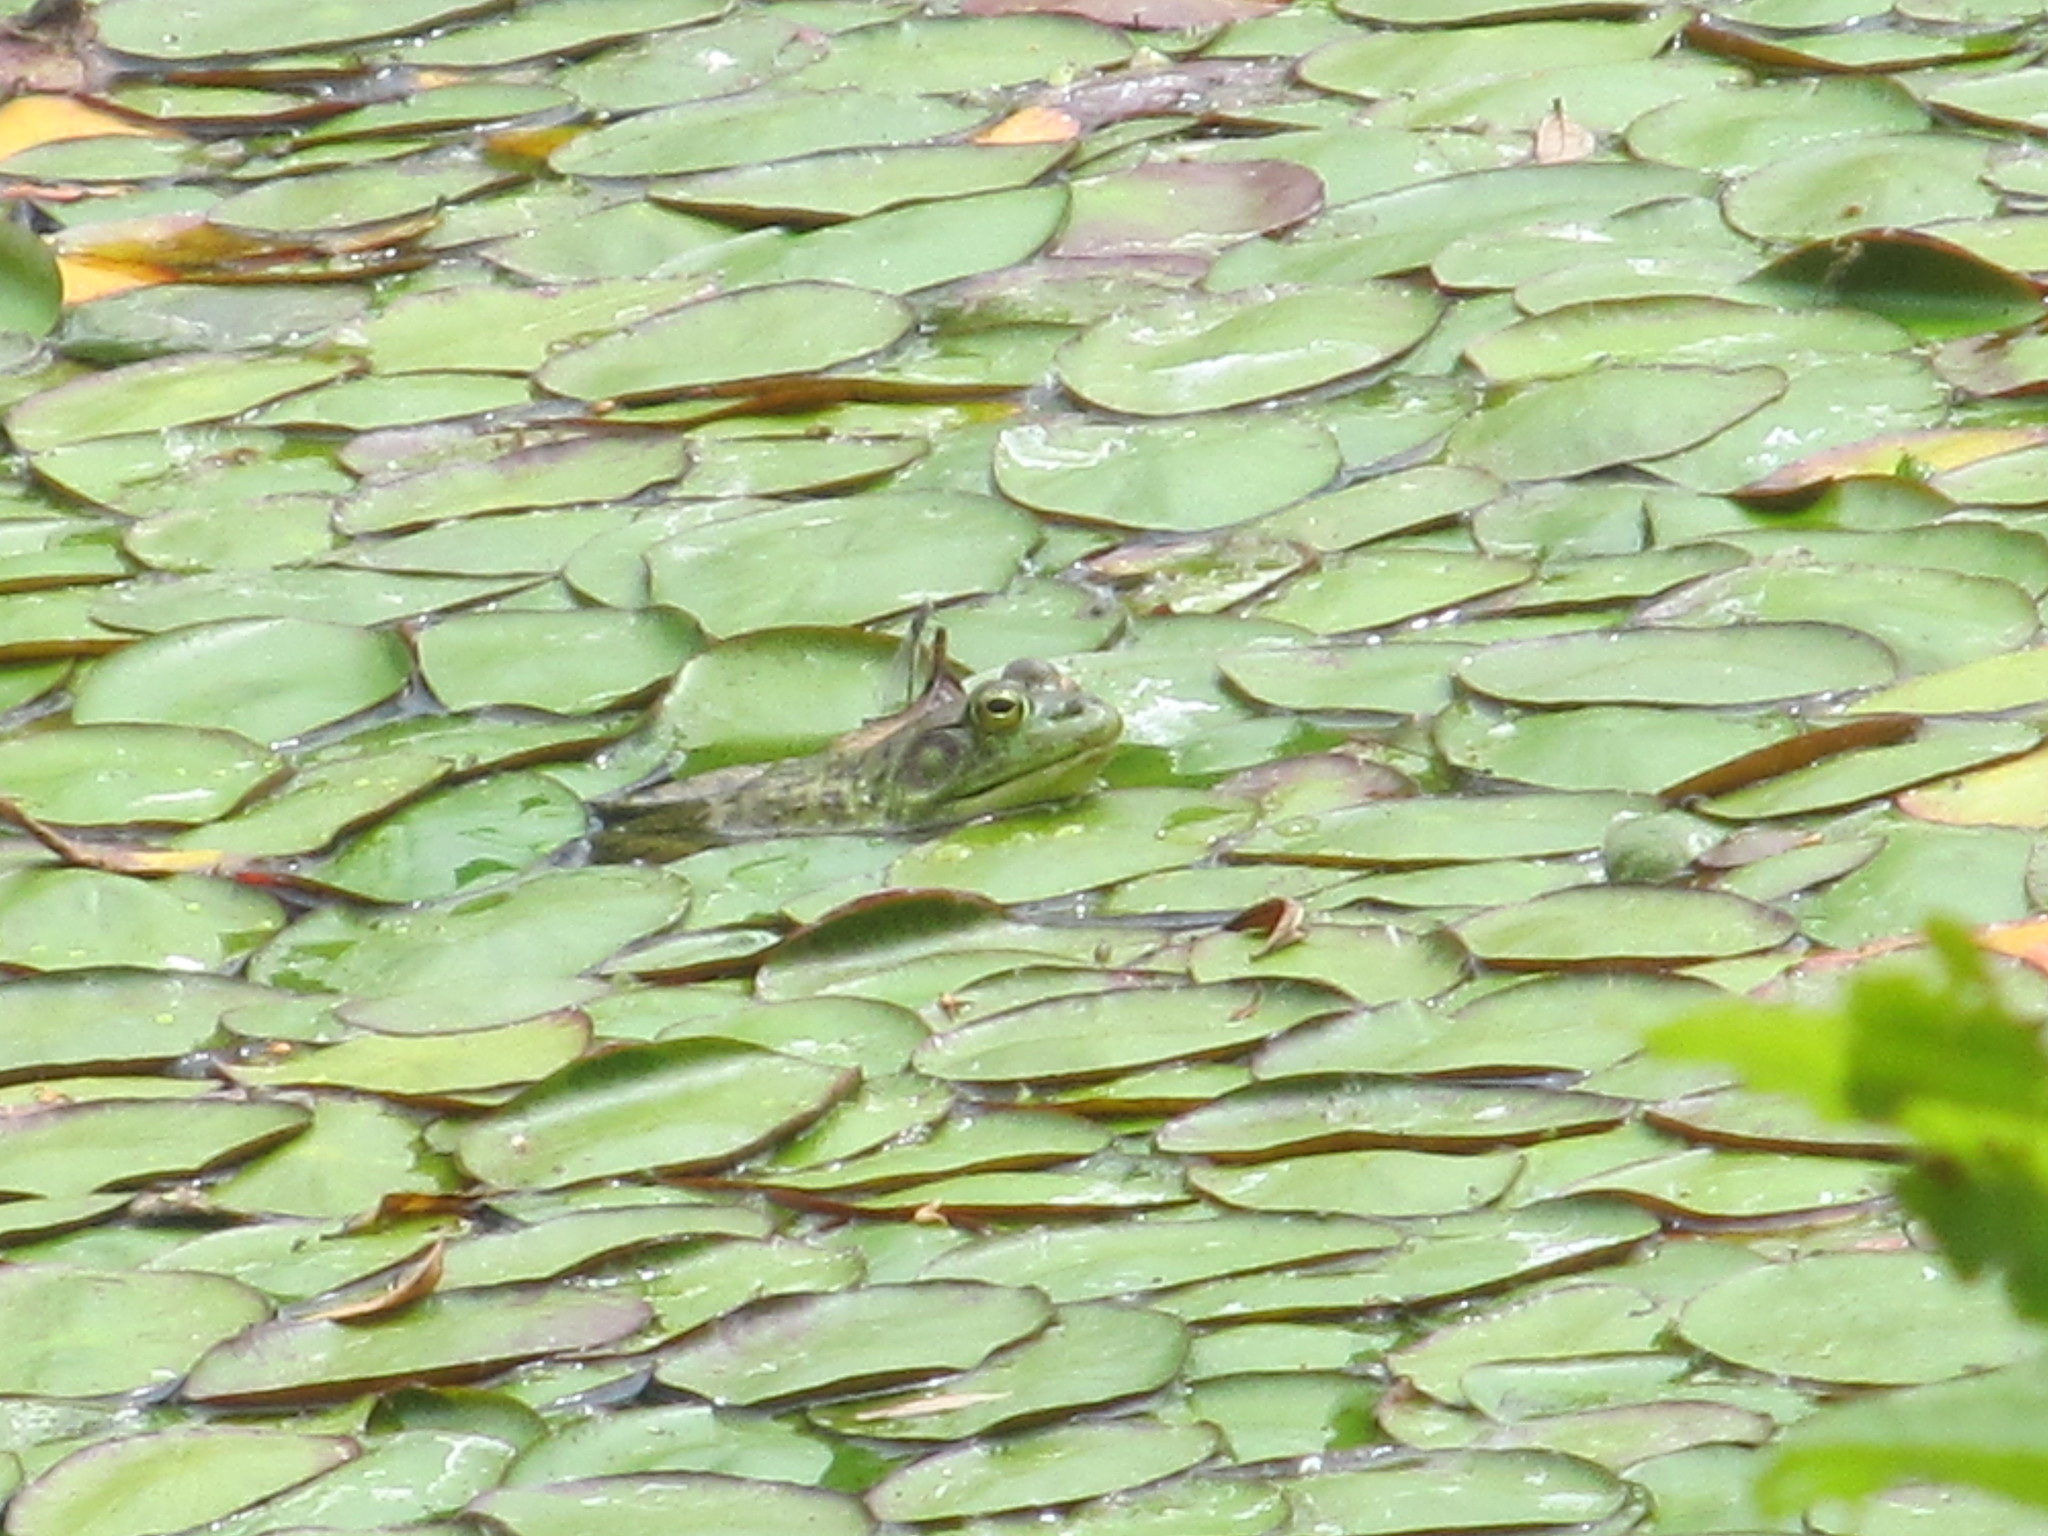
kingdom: Animalia
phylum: Chordata
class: Amphibia
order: Anura
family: Ranidae
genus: Lithobates
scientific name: Lithobates catesbeianus
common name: American bullfrog
